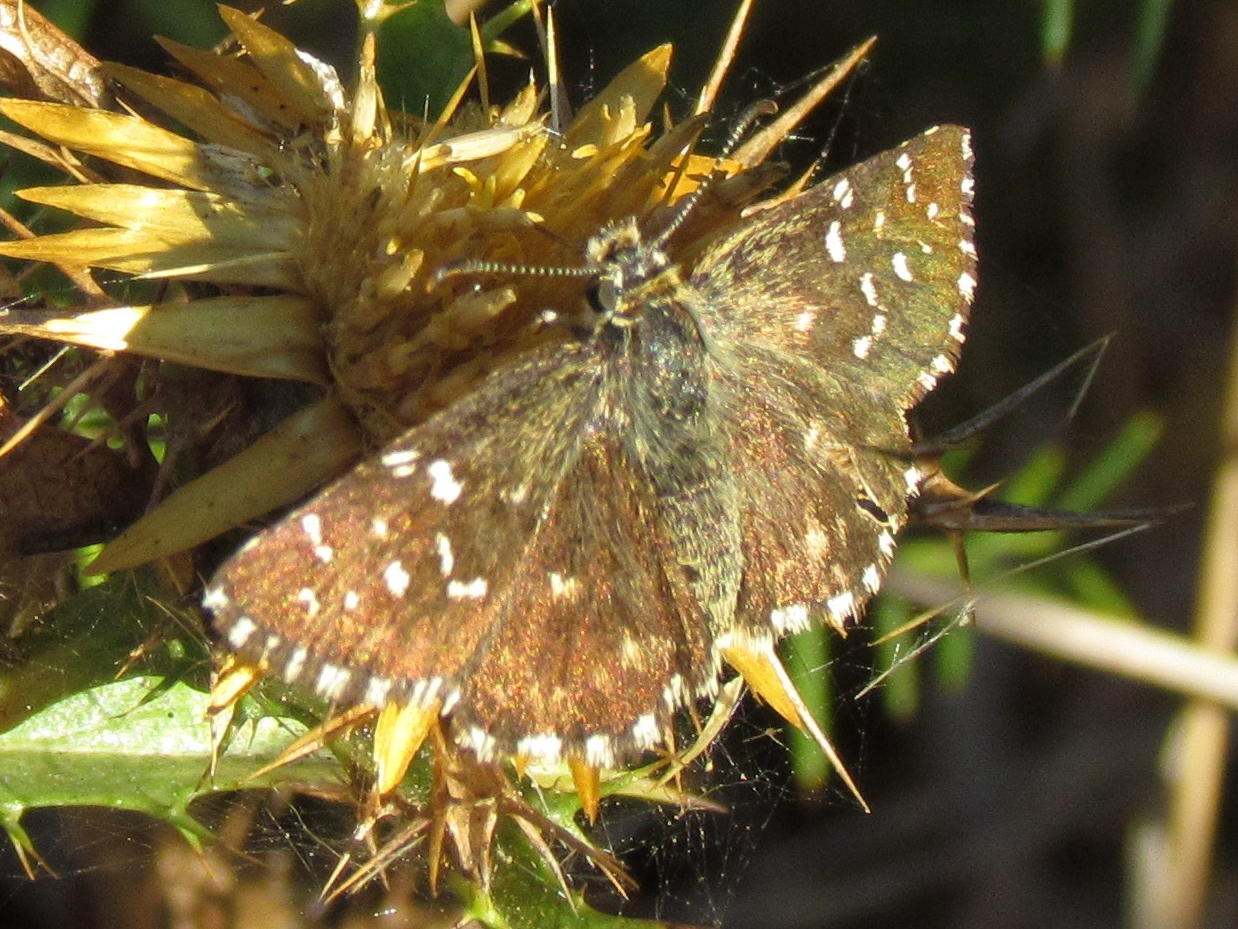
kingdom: Animalia
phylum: Arthropoda
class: Insecta
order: Lepidoptera
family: Hesperiidae
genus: Pyrgus
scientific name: Pyrgus malvoides
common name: Southern grizzled skipper
